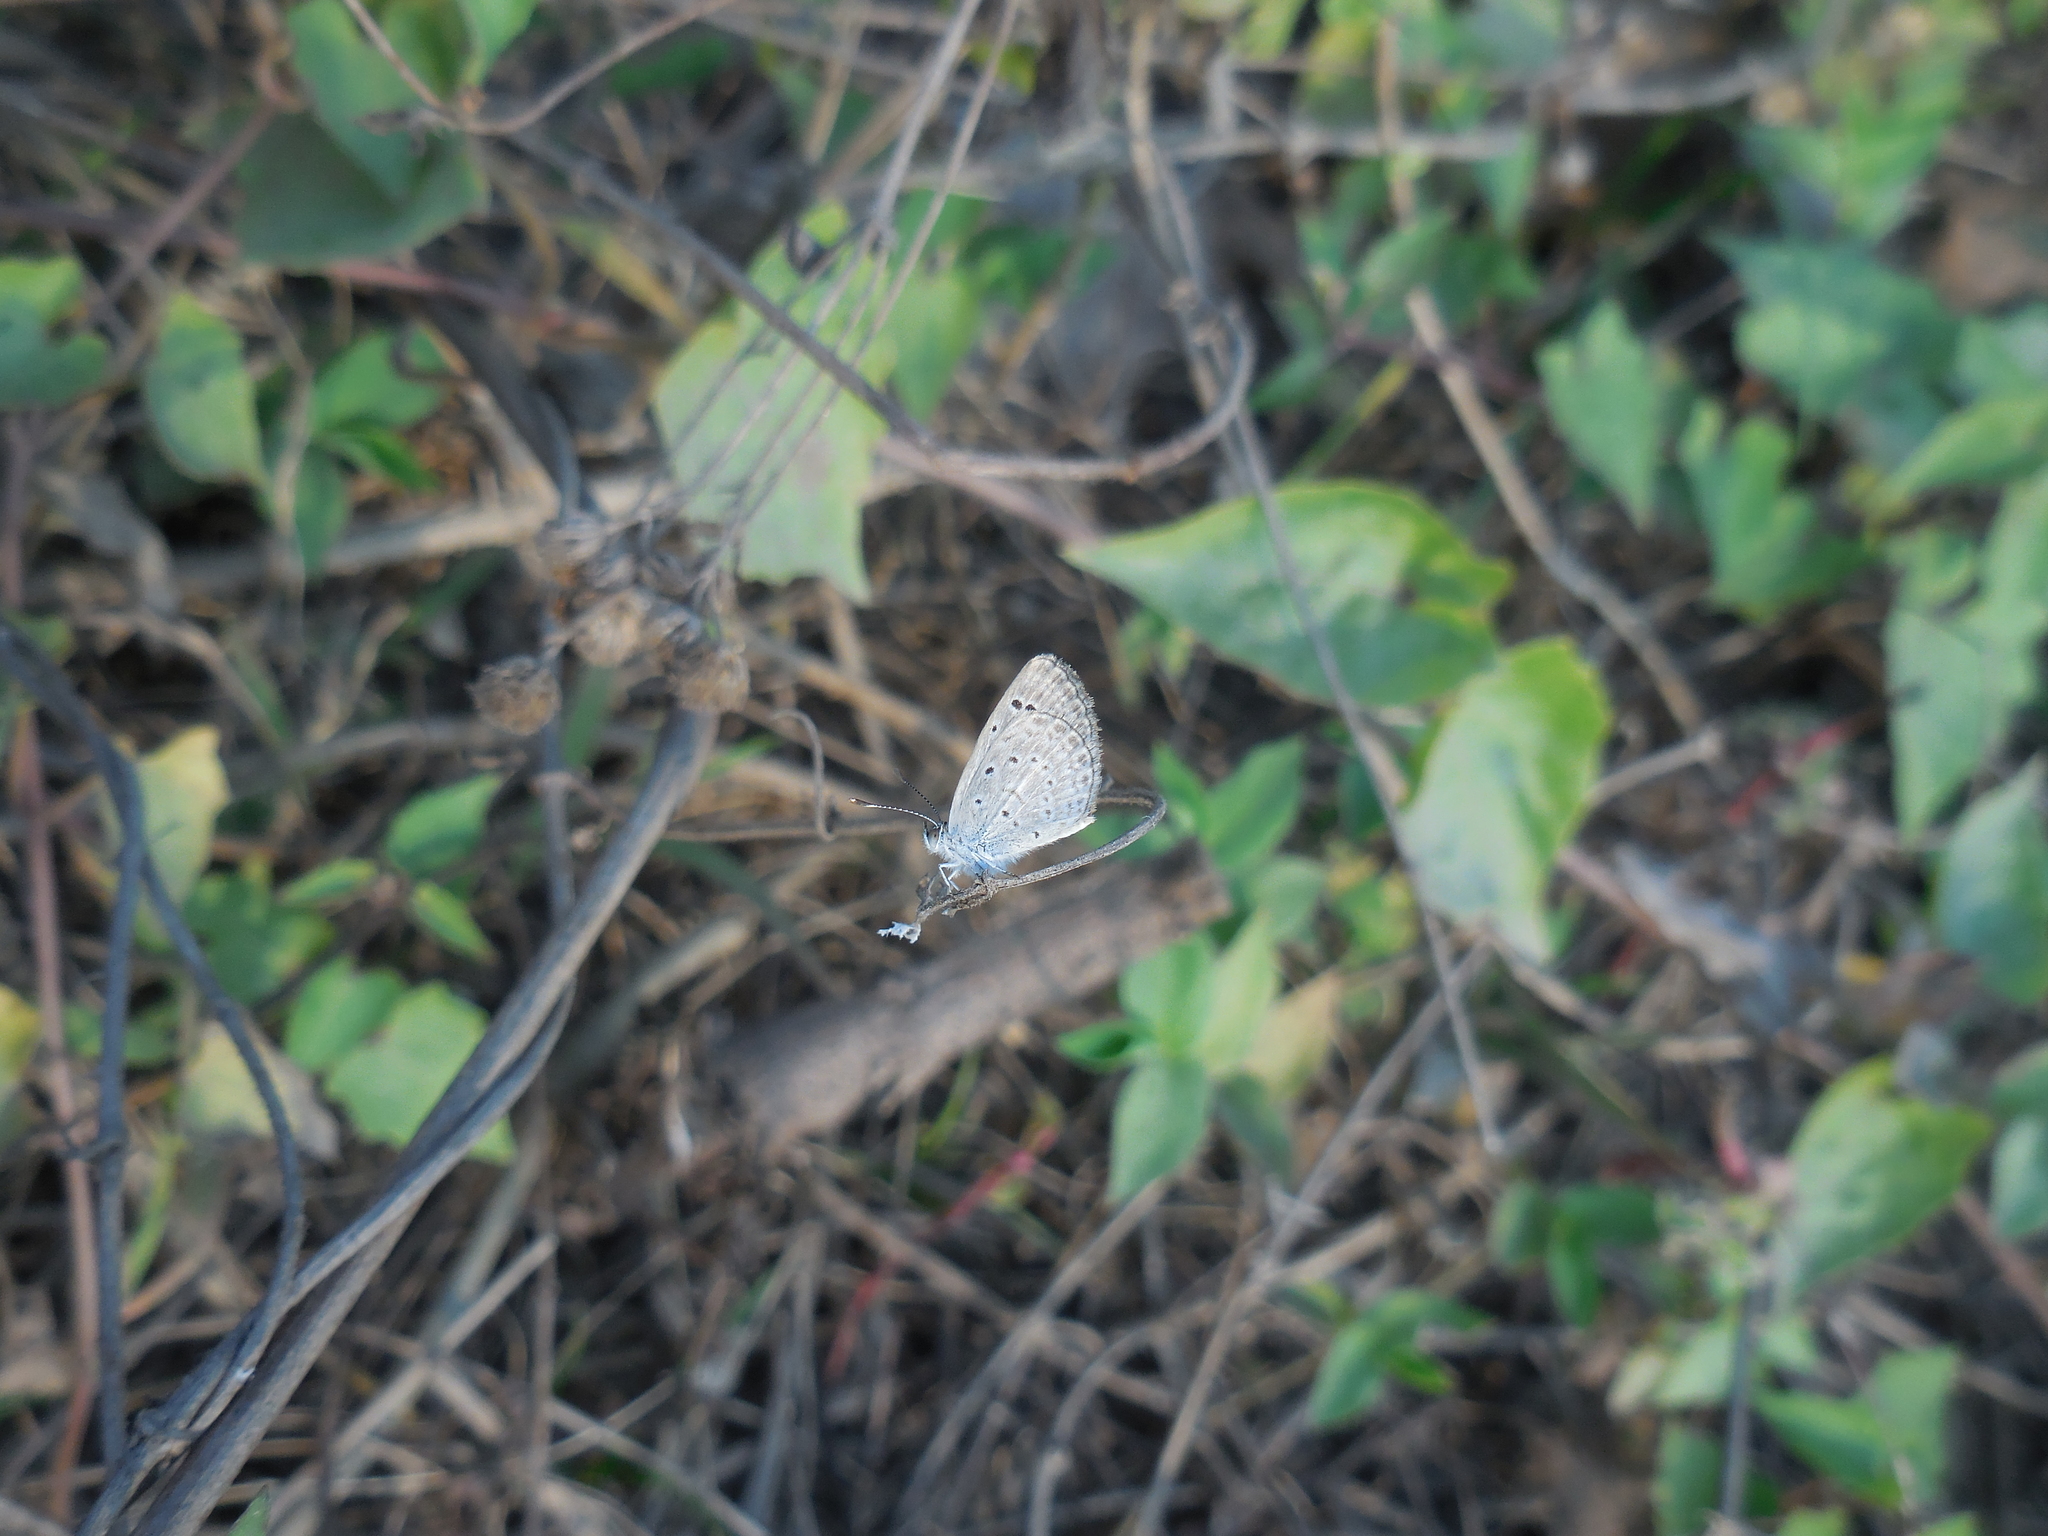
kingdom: Animalia
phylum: Arthropoda
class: Insecta
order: Lepidoptera
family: Lycaenidae
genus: Zizina
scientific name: Zizina otis
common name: Lesser grass blue
